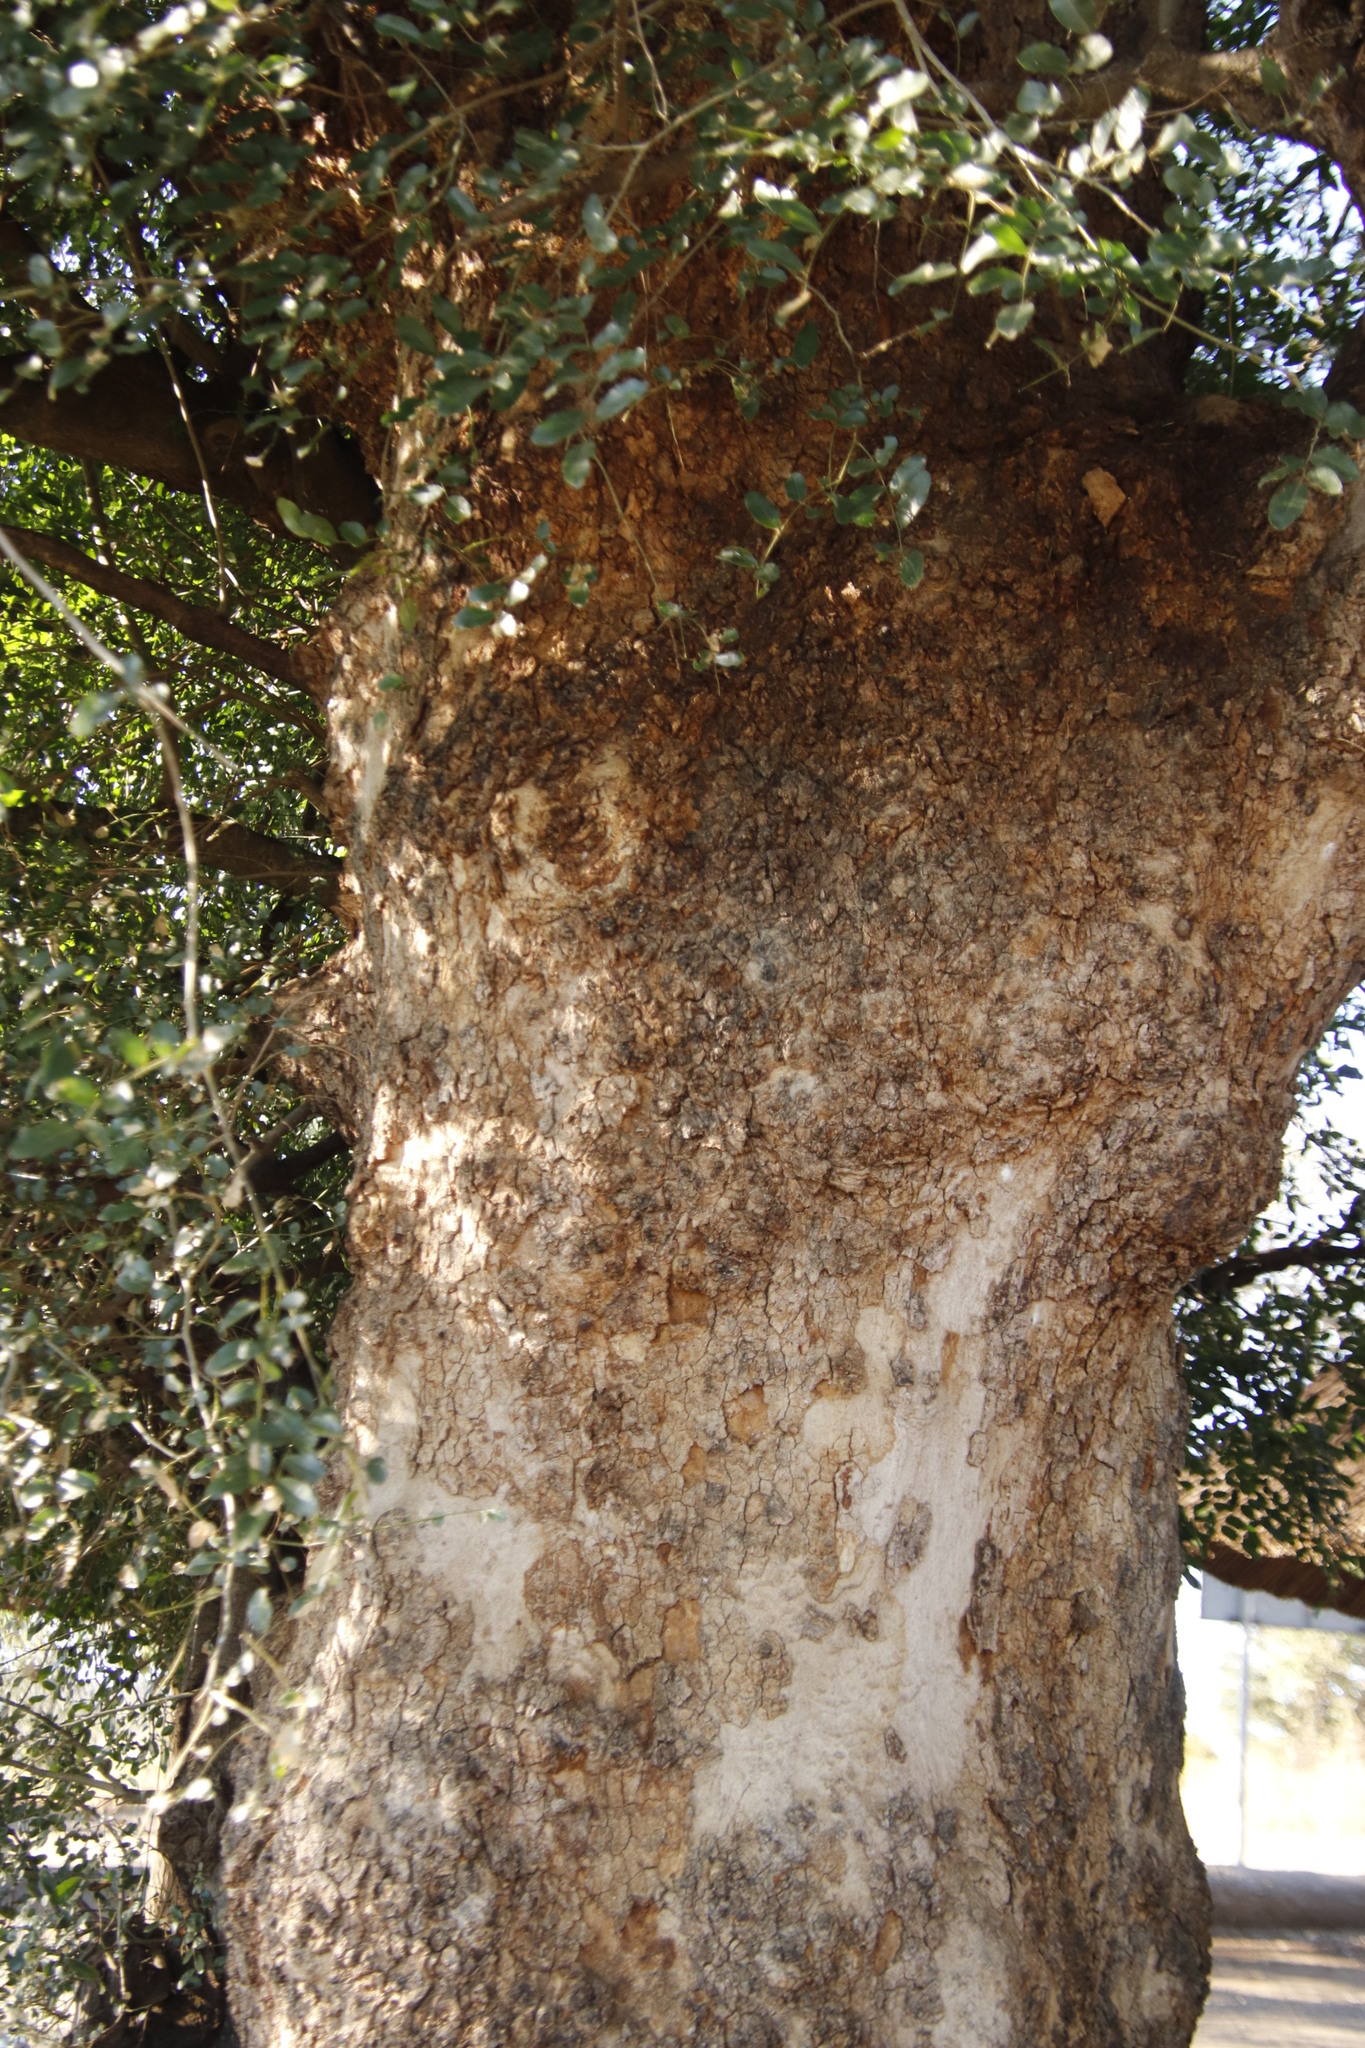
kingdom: Plantae
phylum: Tracheophyta
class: Magnoliopsida
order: Fabales
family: Fabaceae
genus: Xanthocercis
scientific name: Xanthocercis zambesiaca
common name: Nyala-tree
